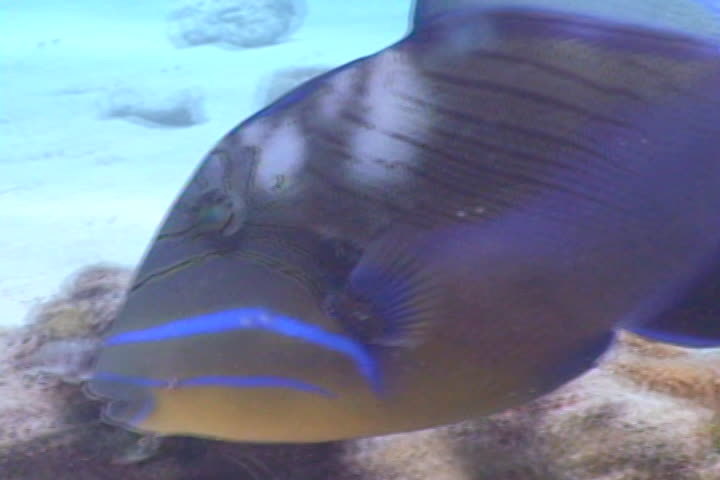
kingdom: Animalia
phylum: Chordata
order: Tetraodontiformes
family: Balistidae
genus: Balistes
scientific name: Balistes vetula
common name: Queen triggerfish
